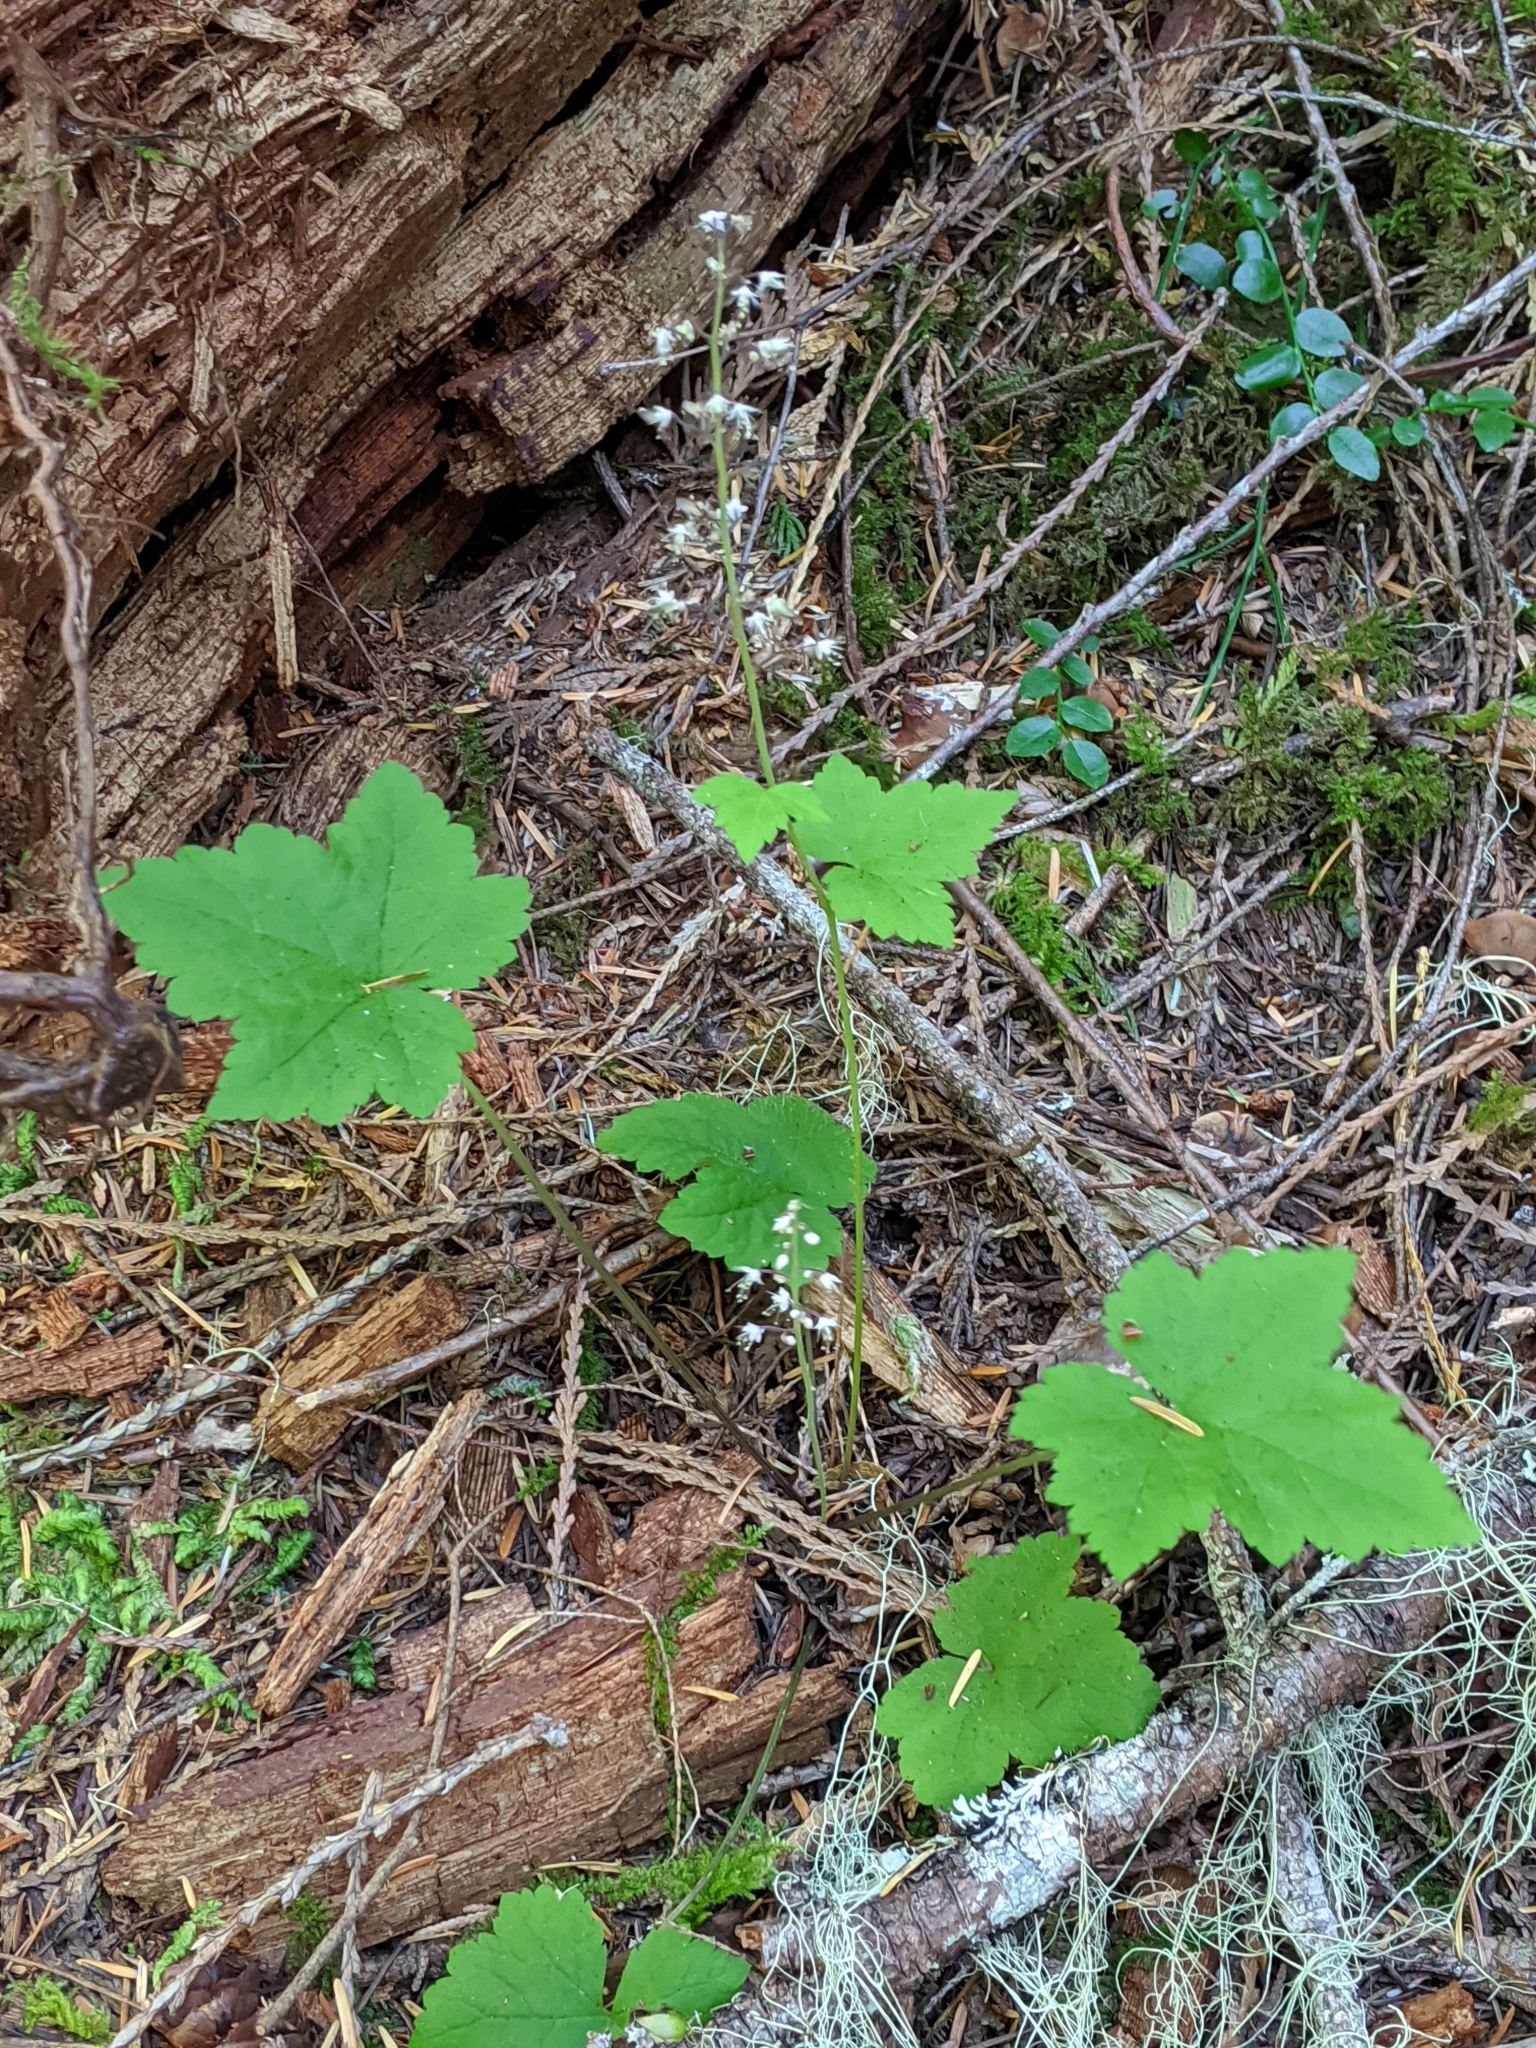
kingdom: Plantae
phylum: Tracheophyta
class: Magnoliopsida
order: Saxifragales
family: Saxifragaceae
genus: Tiarella
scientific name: Tiarella trifoliata
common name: Sugar-scoop
